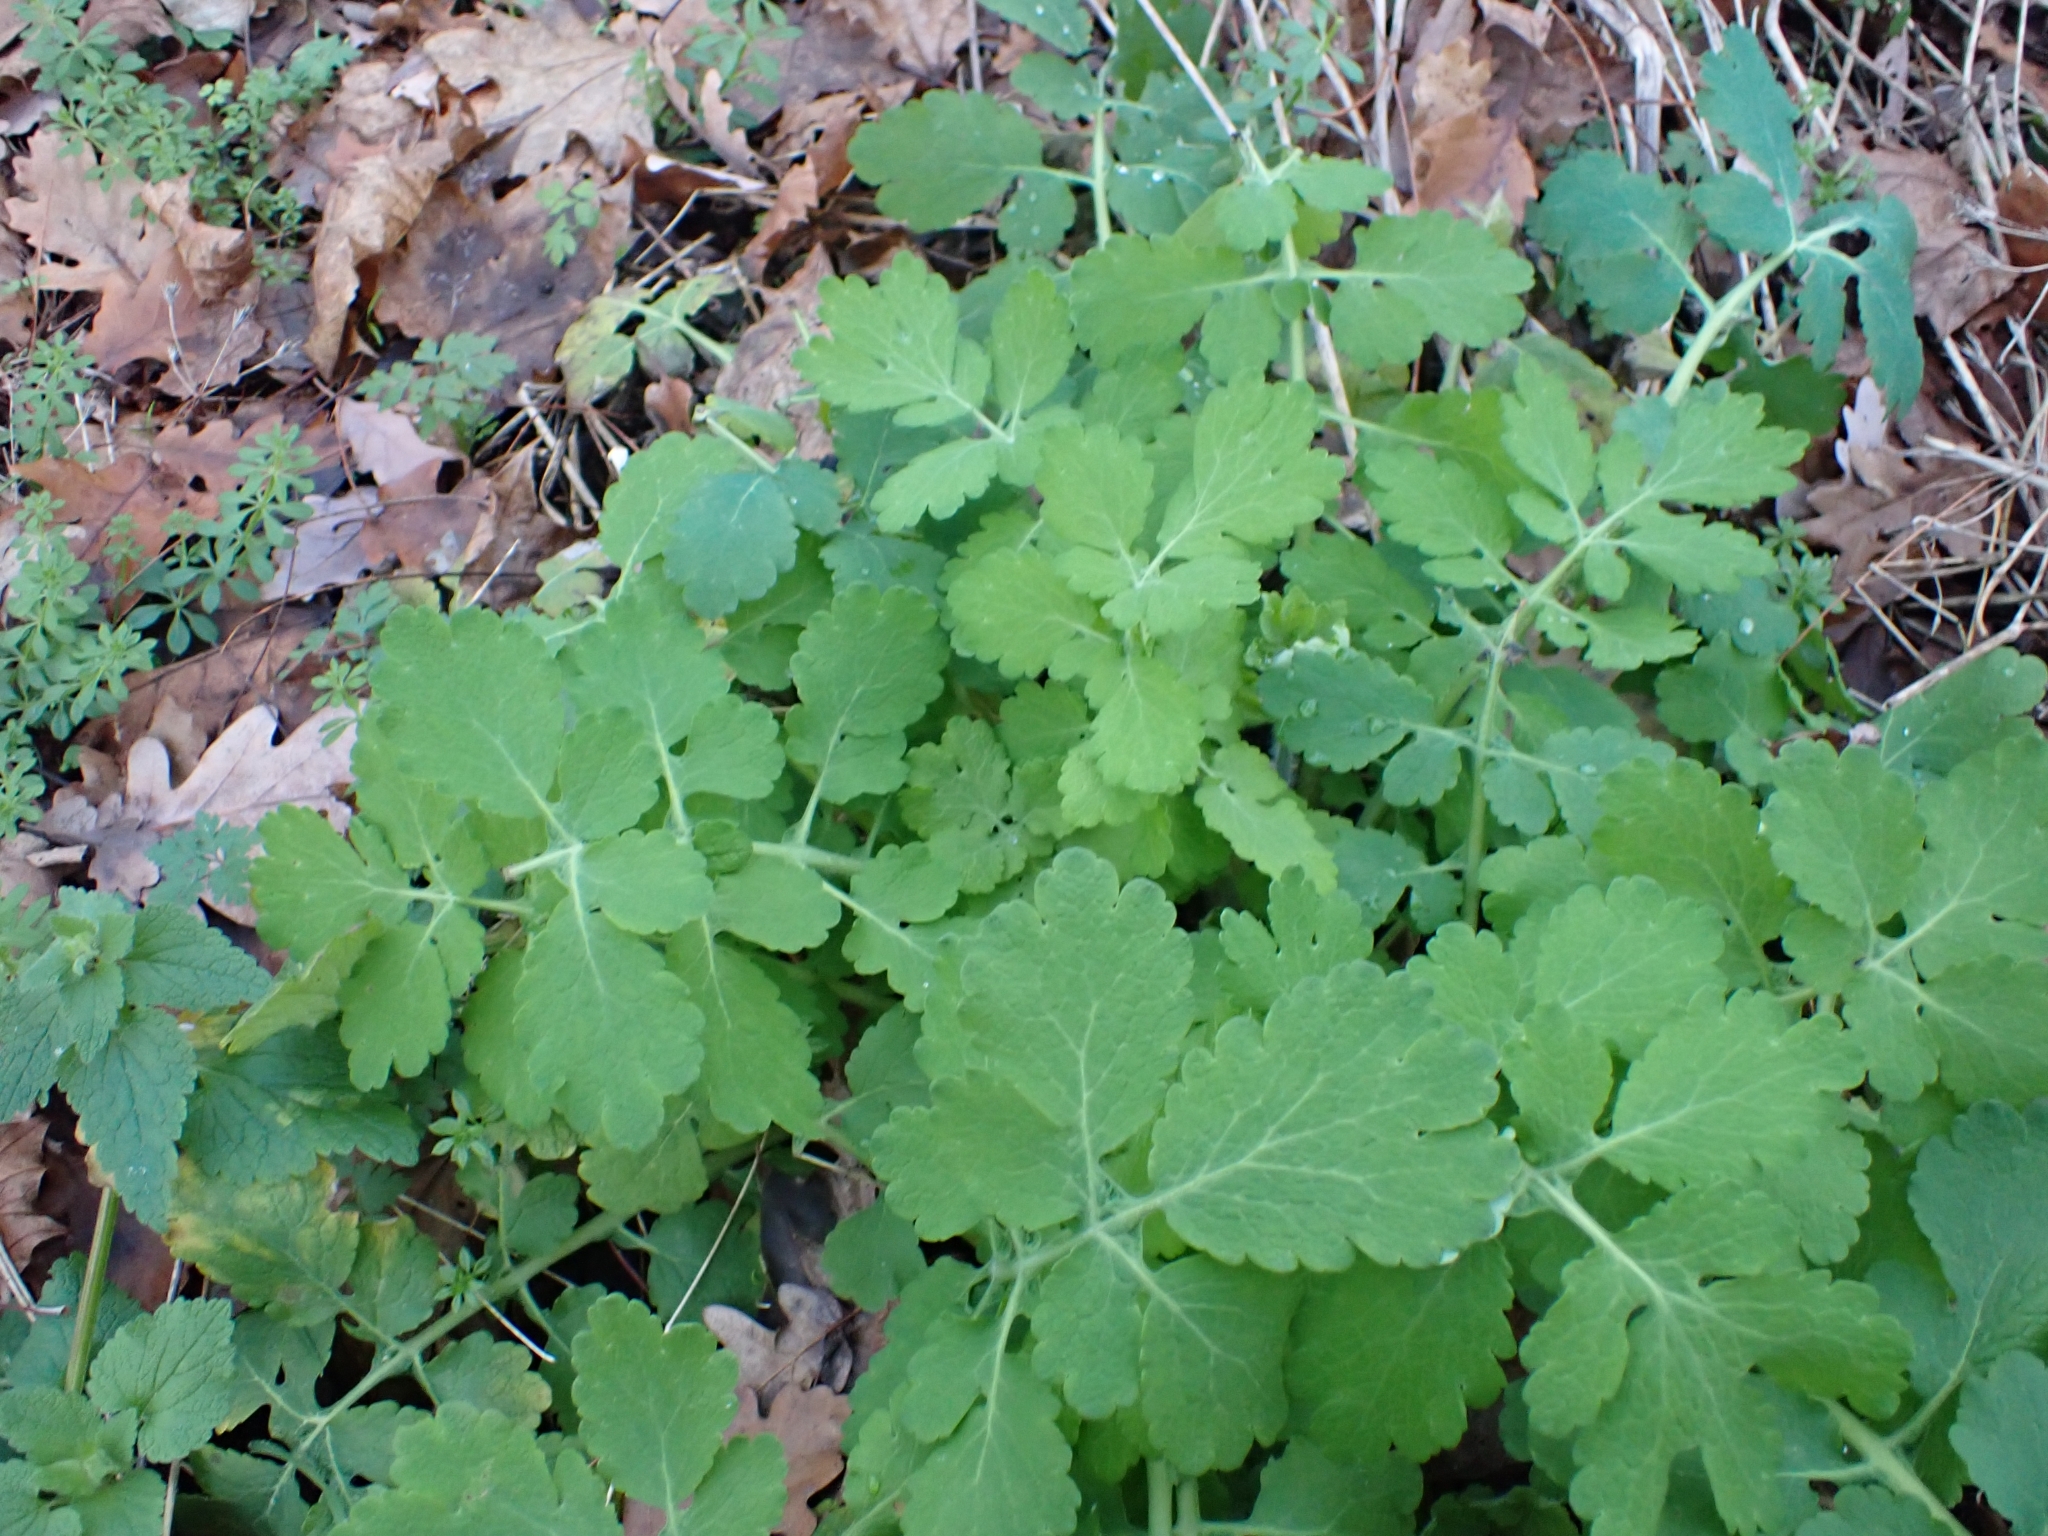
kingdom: Plantae
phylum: Tracheophyta
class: Magnoliopsida
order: Ranunculales
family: Papaveraceae
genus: Chelidonium
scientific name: Chelidonium majus
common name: Greater celandine
